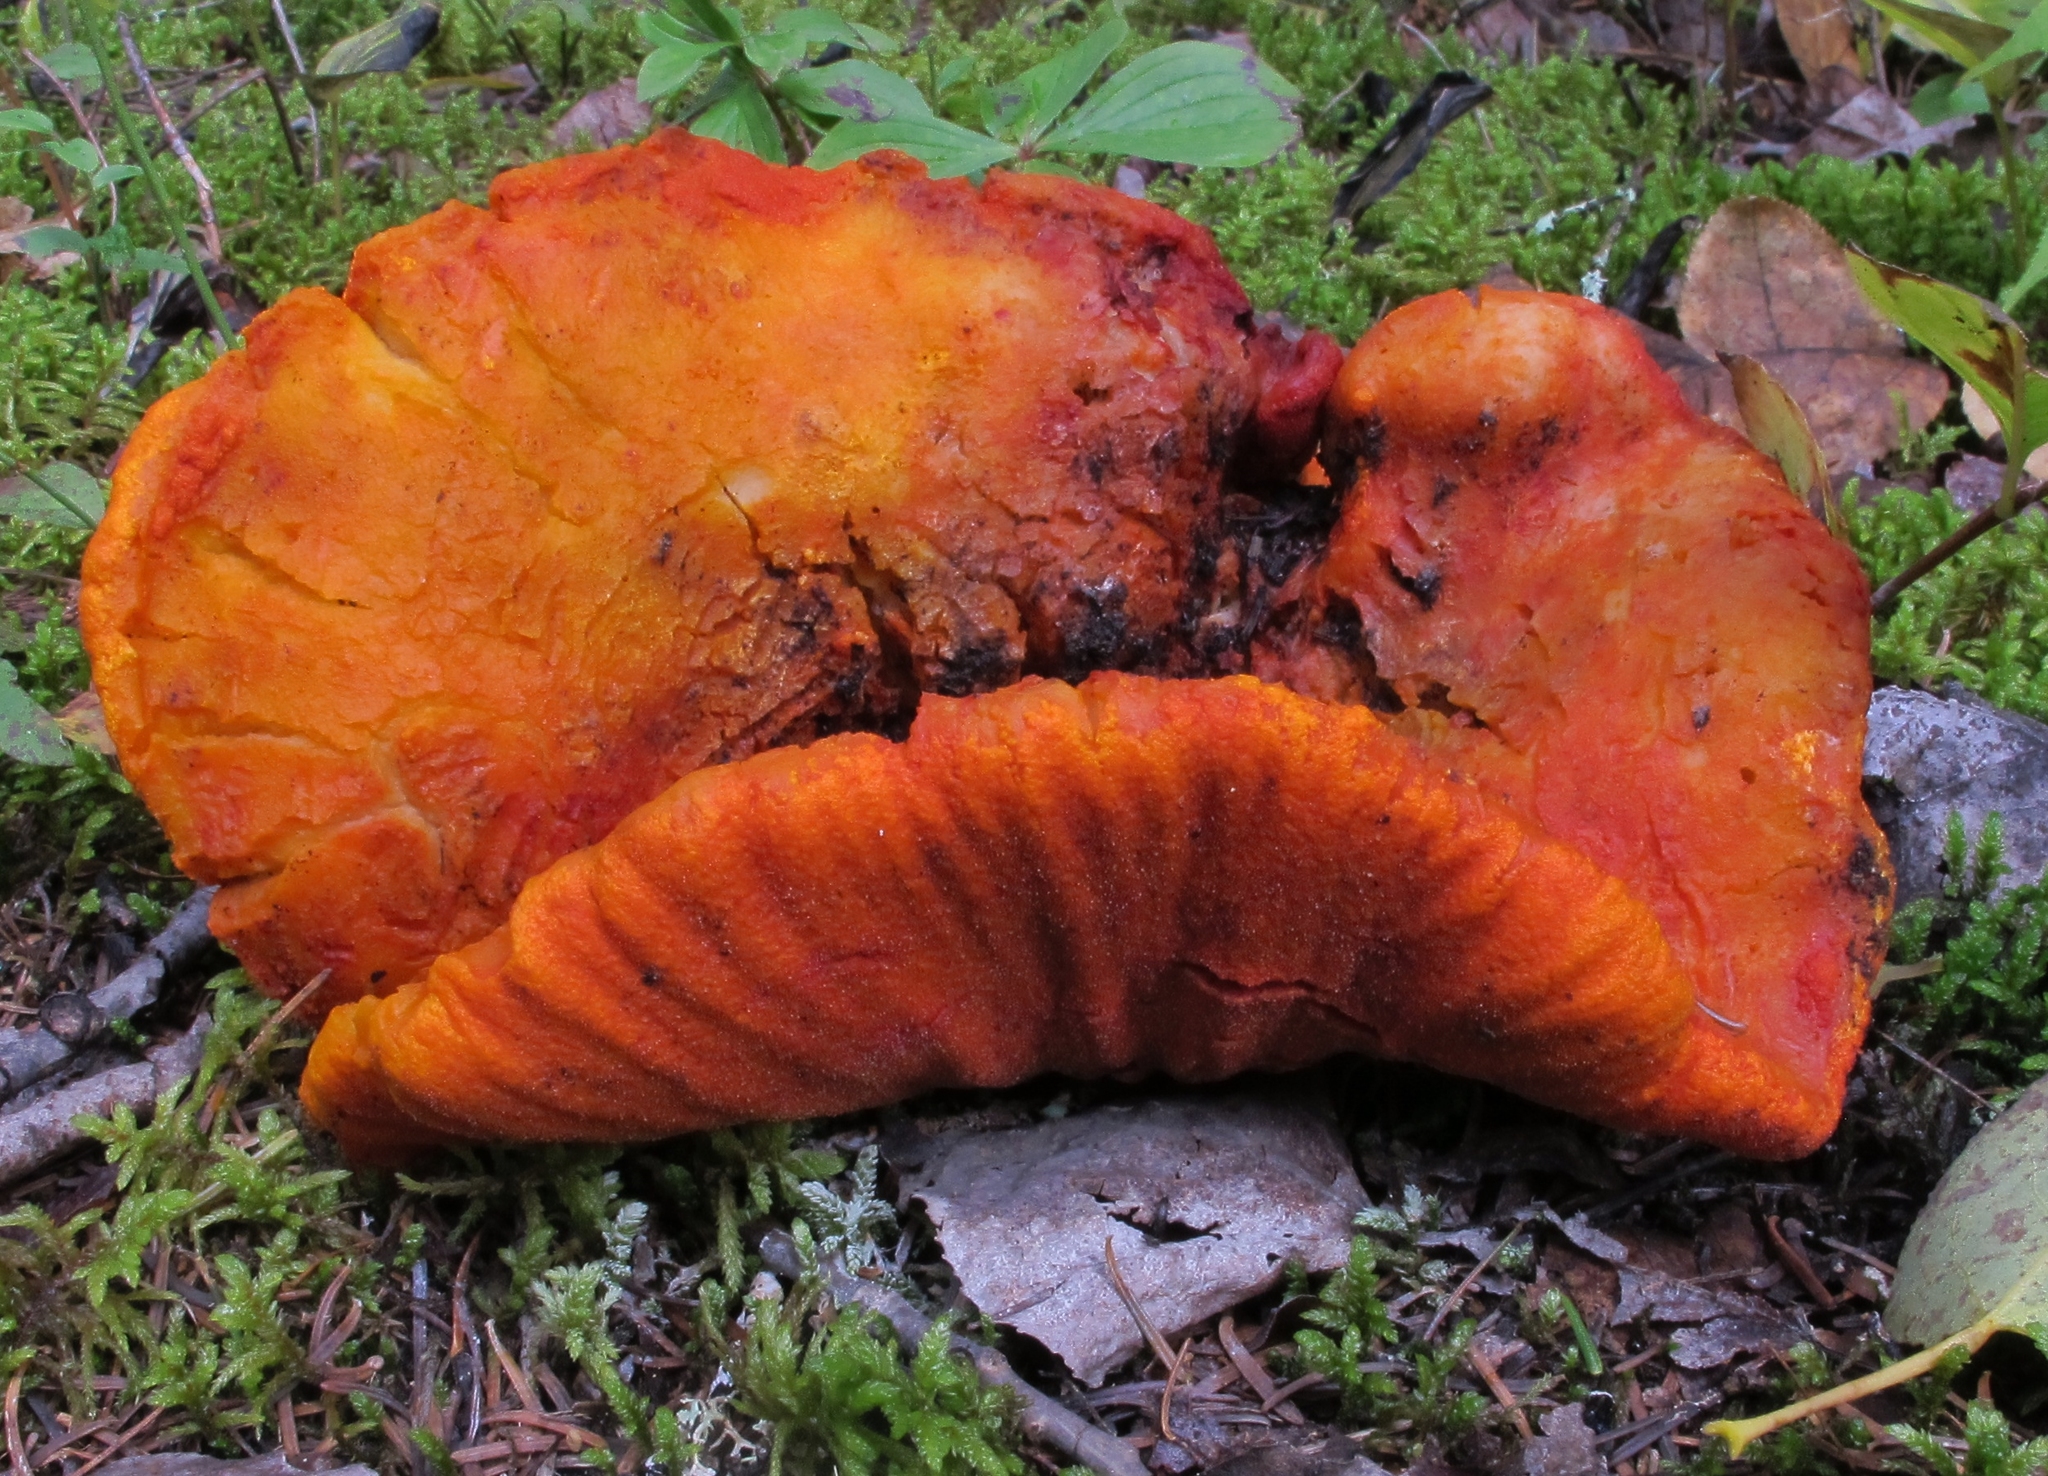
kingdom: Fungi
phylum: Ascomycota
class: Sordariomycetes
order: Hypocreales
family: Hypocreaceae
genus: Hypomyces
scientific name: Hypomyces lactifluorum
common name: Lobster mushroom
